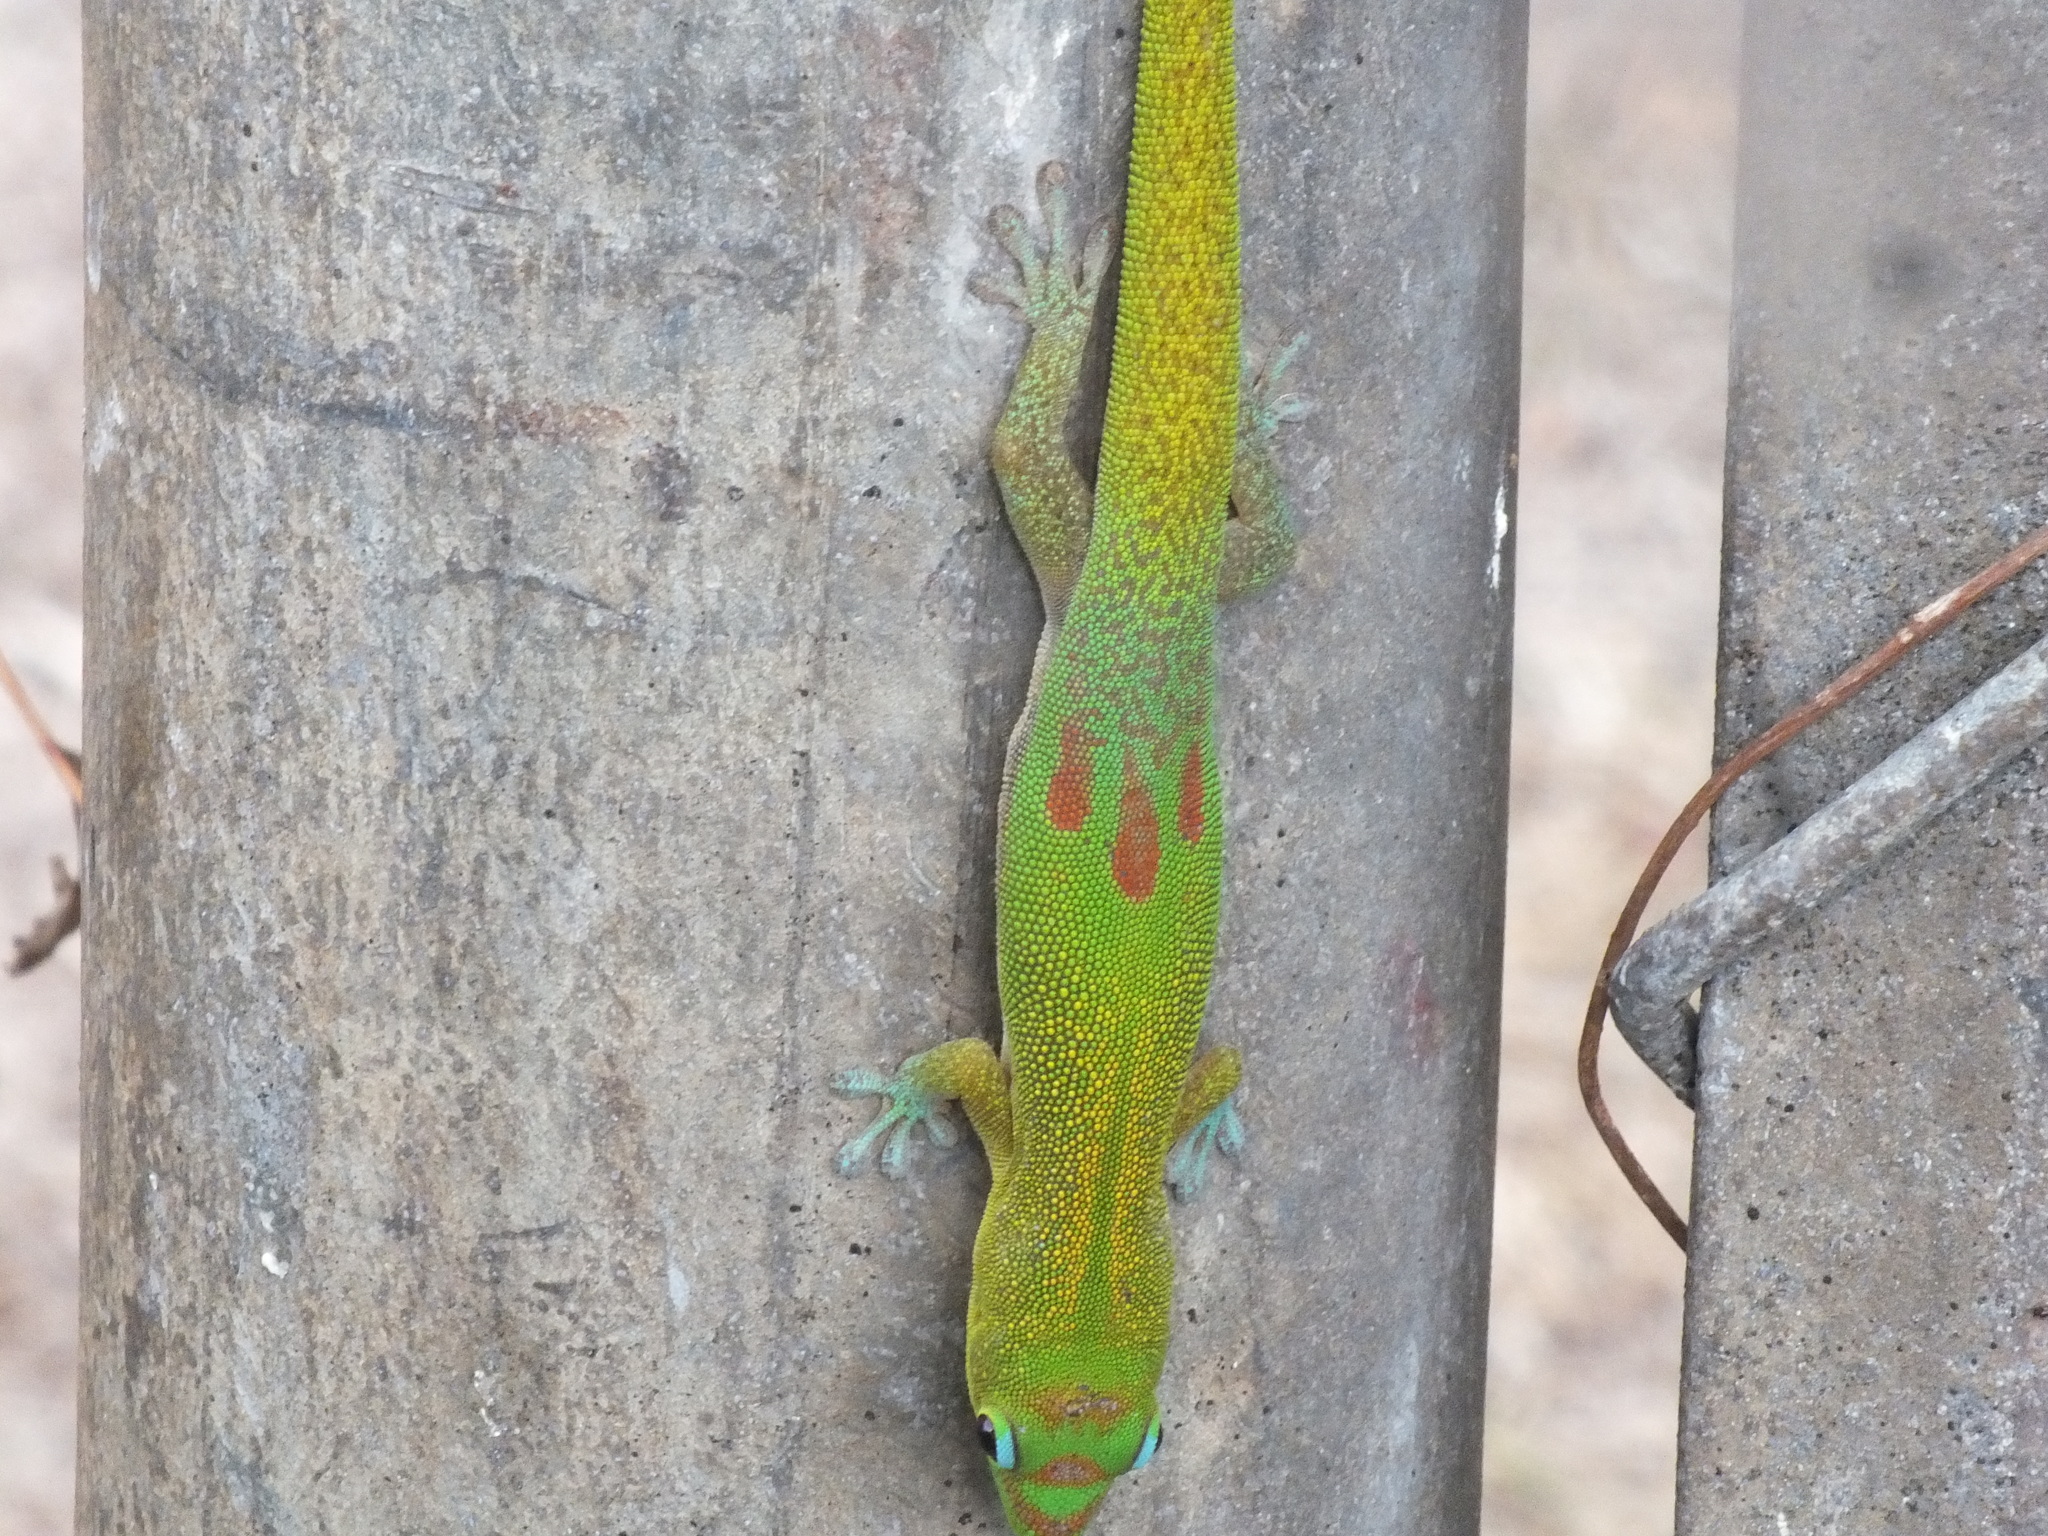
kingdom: Animalia
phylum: Chordata
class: Squamata
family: Gekkonidae
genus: Phelsuma
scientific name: Phelsuma laticauda
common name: Gold dust day gecko
